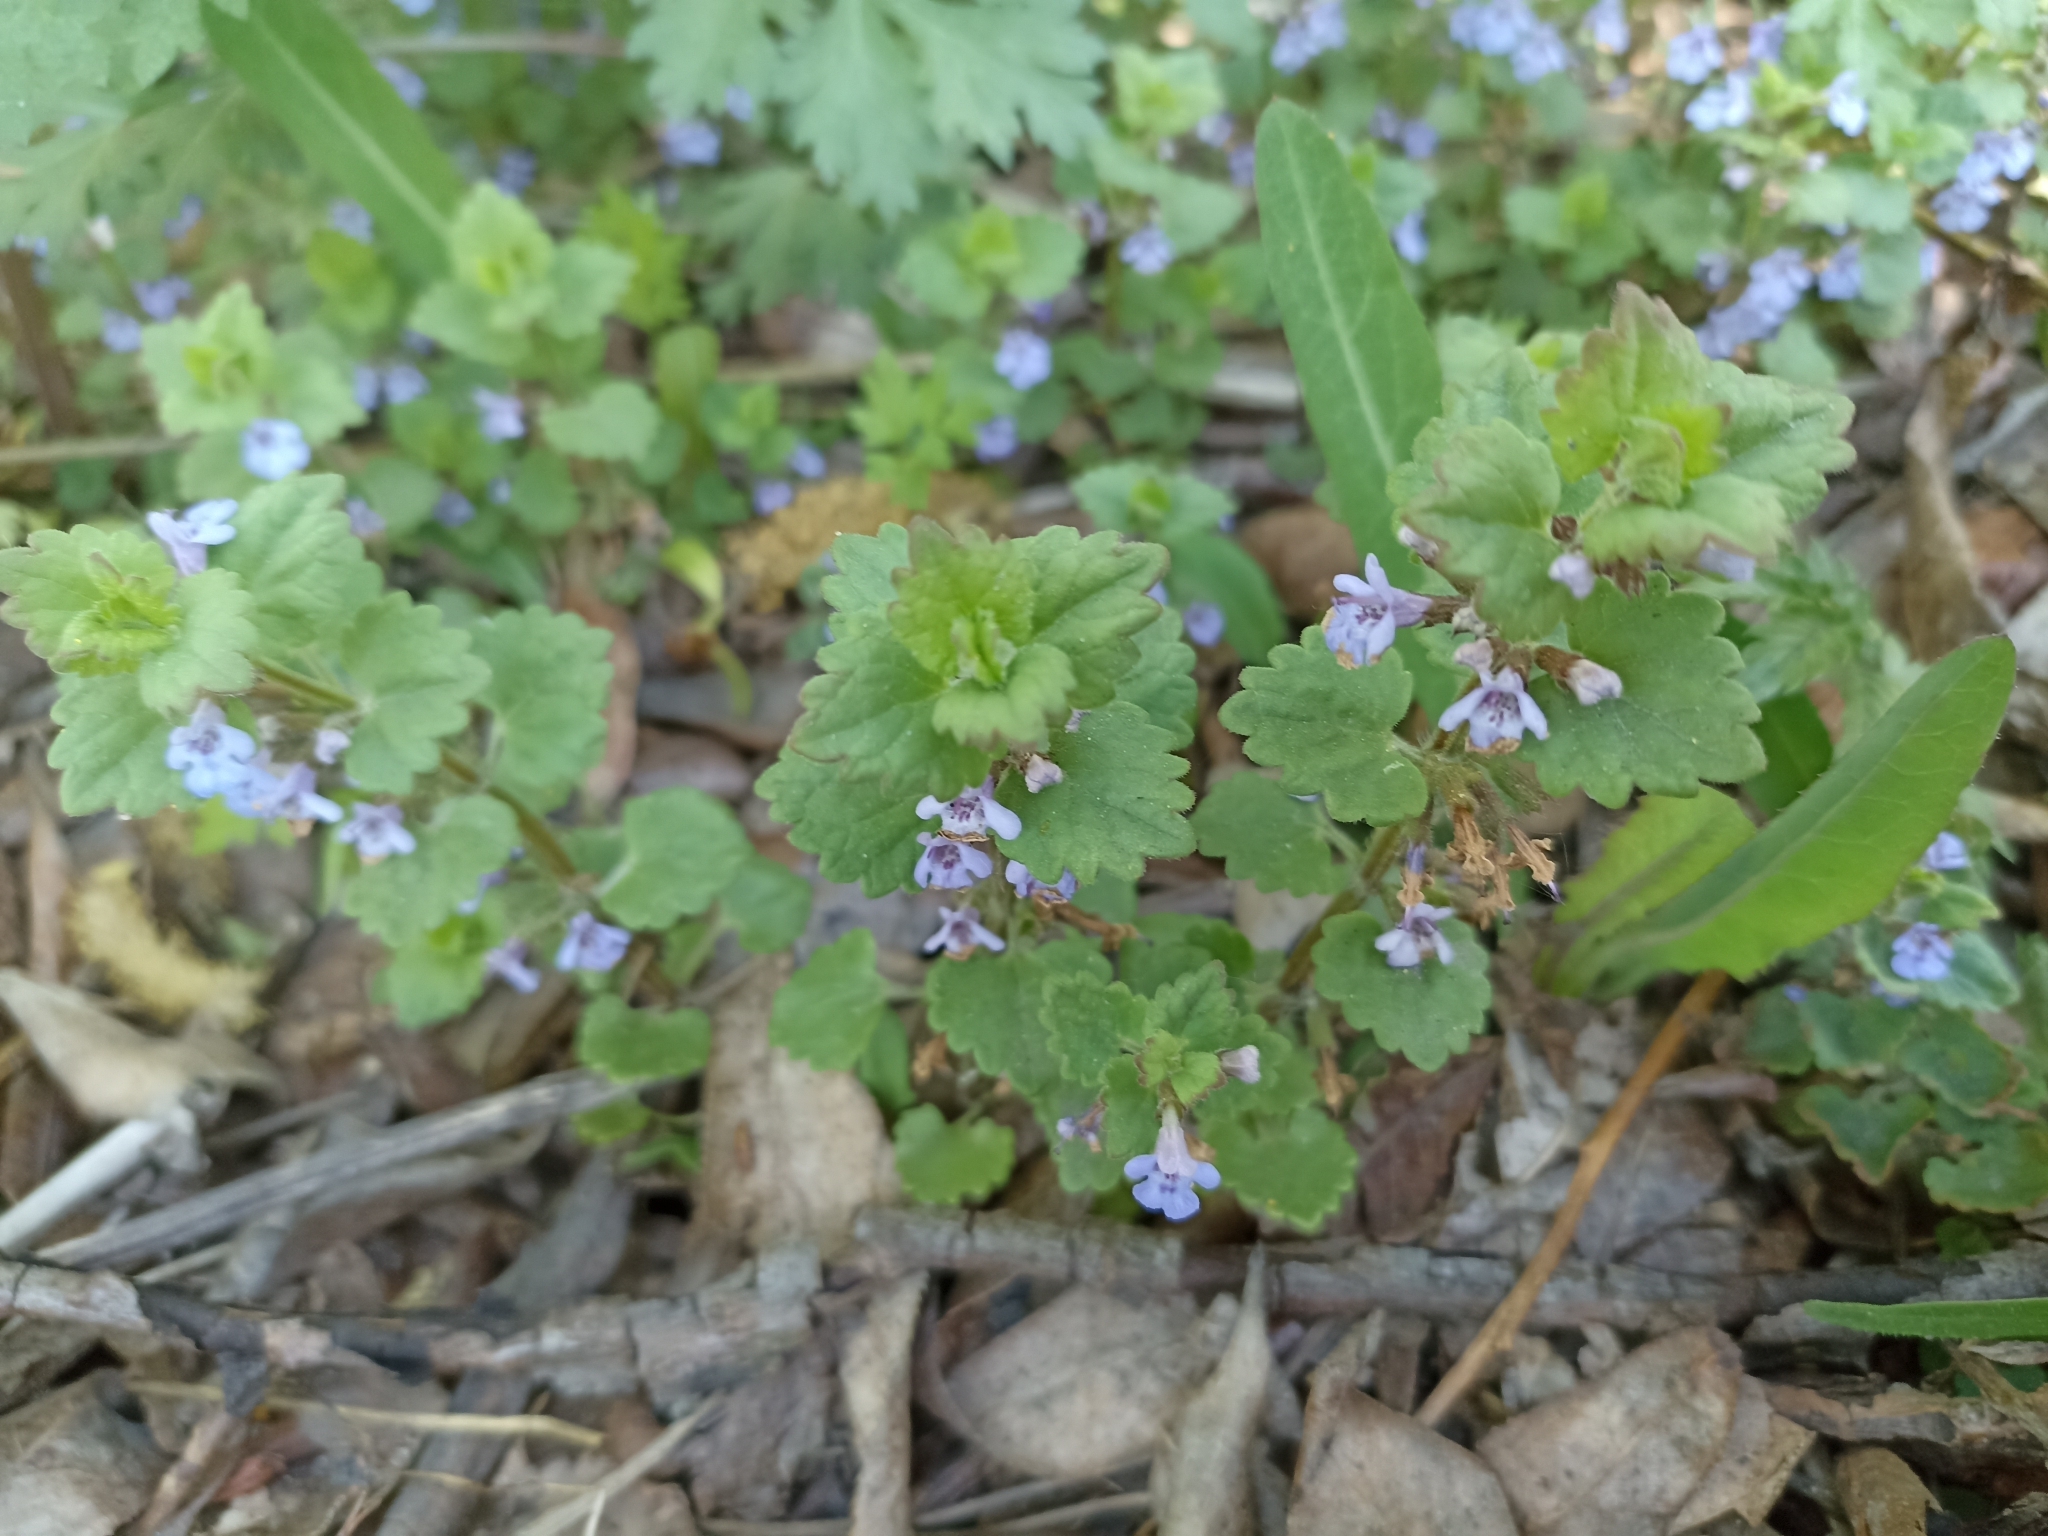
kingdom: Plantae
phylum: Tracheophyta
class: Magnoliopsida
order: Lamiales
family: Lamiaceae
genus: Glechoma
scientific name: Glechoma hederacea
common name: Ground ivy
